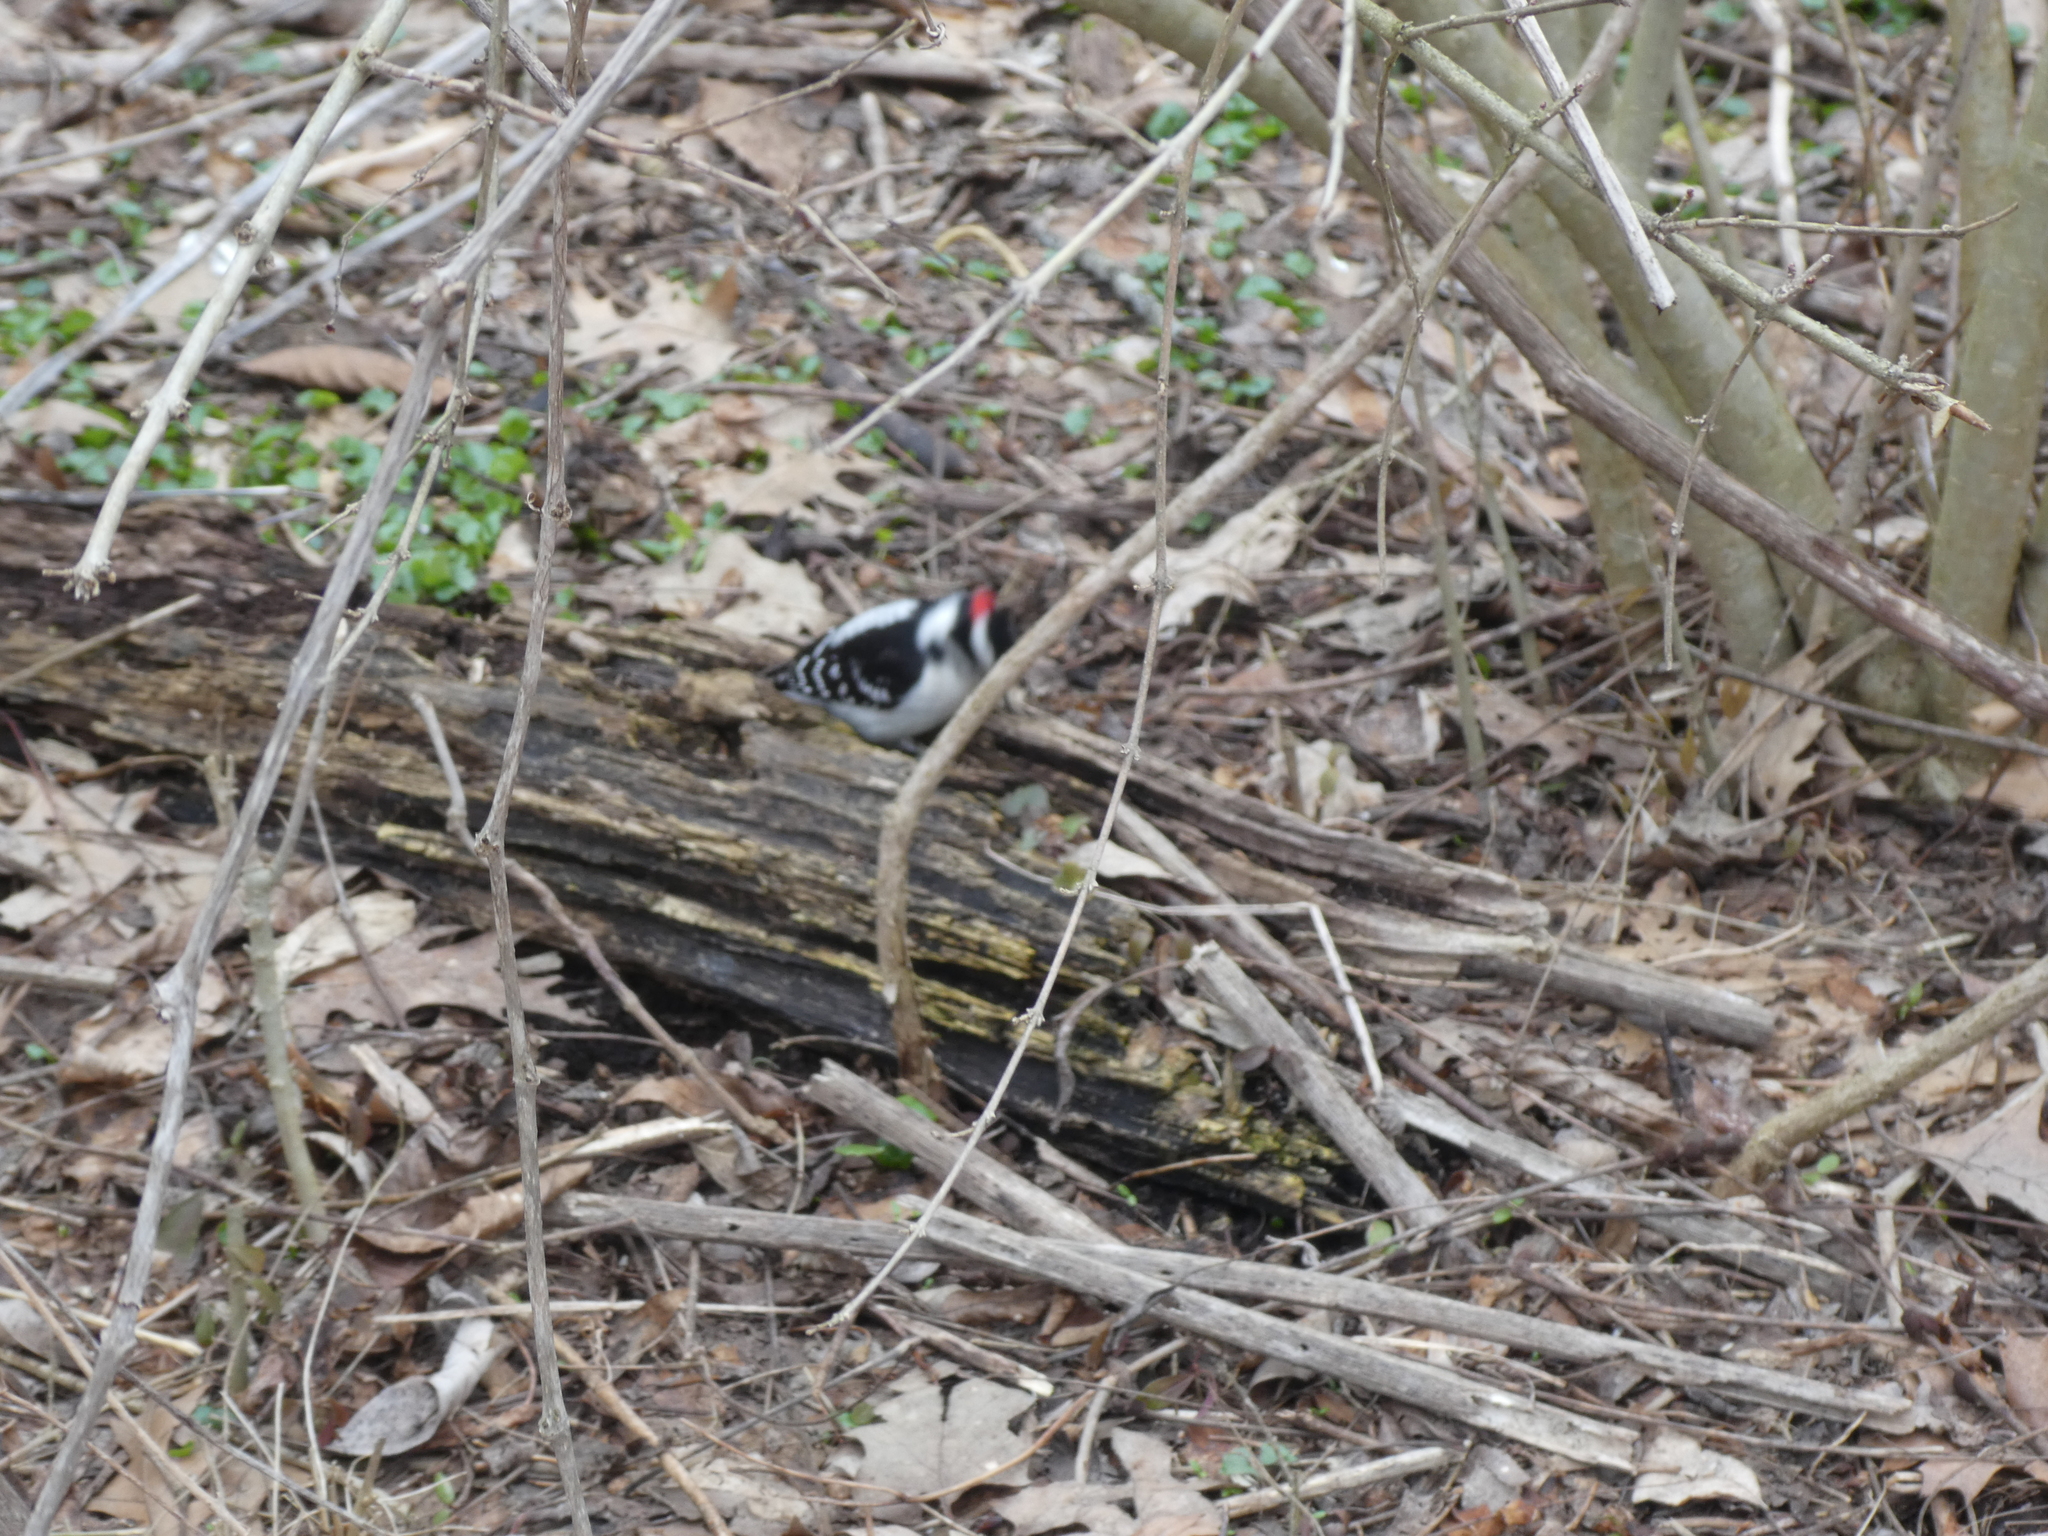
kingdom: Animalia
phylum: Chordata
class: Aves
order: Piciformes
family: Picidae
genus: Dryobates
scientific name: Dryobates pubescens
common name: Downy woodpecker
